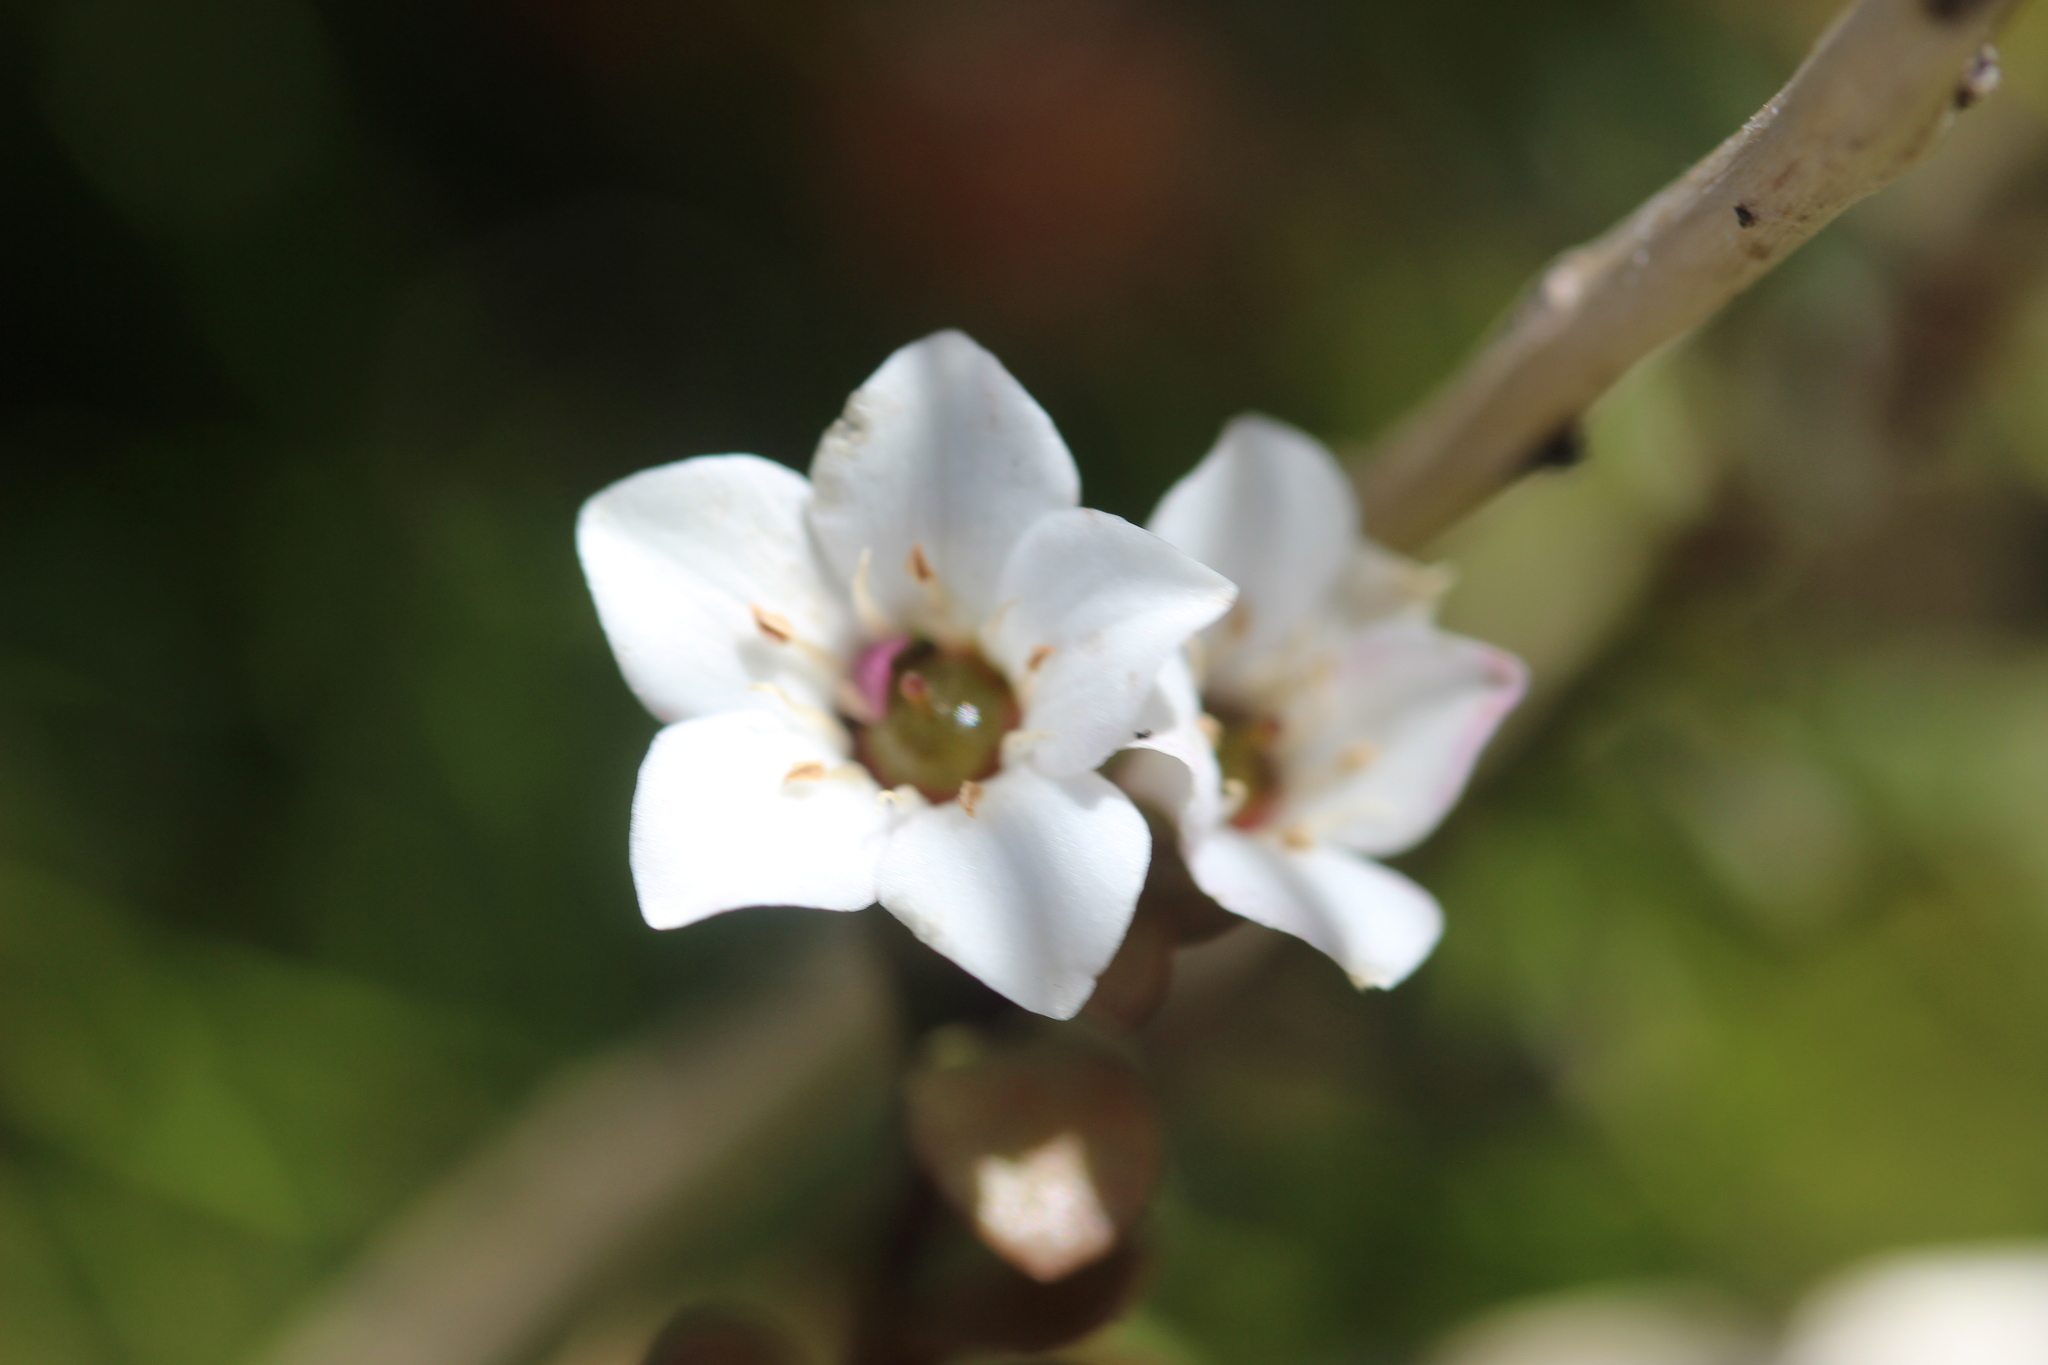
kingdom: Plantae
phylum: Tracheophyta
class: Magnoliopsida
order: Ericales
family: Primulaceae
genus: Samolus
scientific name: Samolus repens
